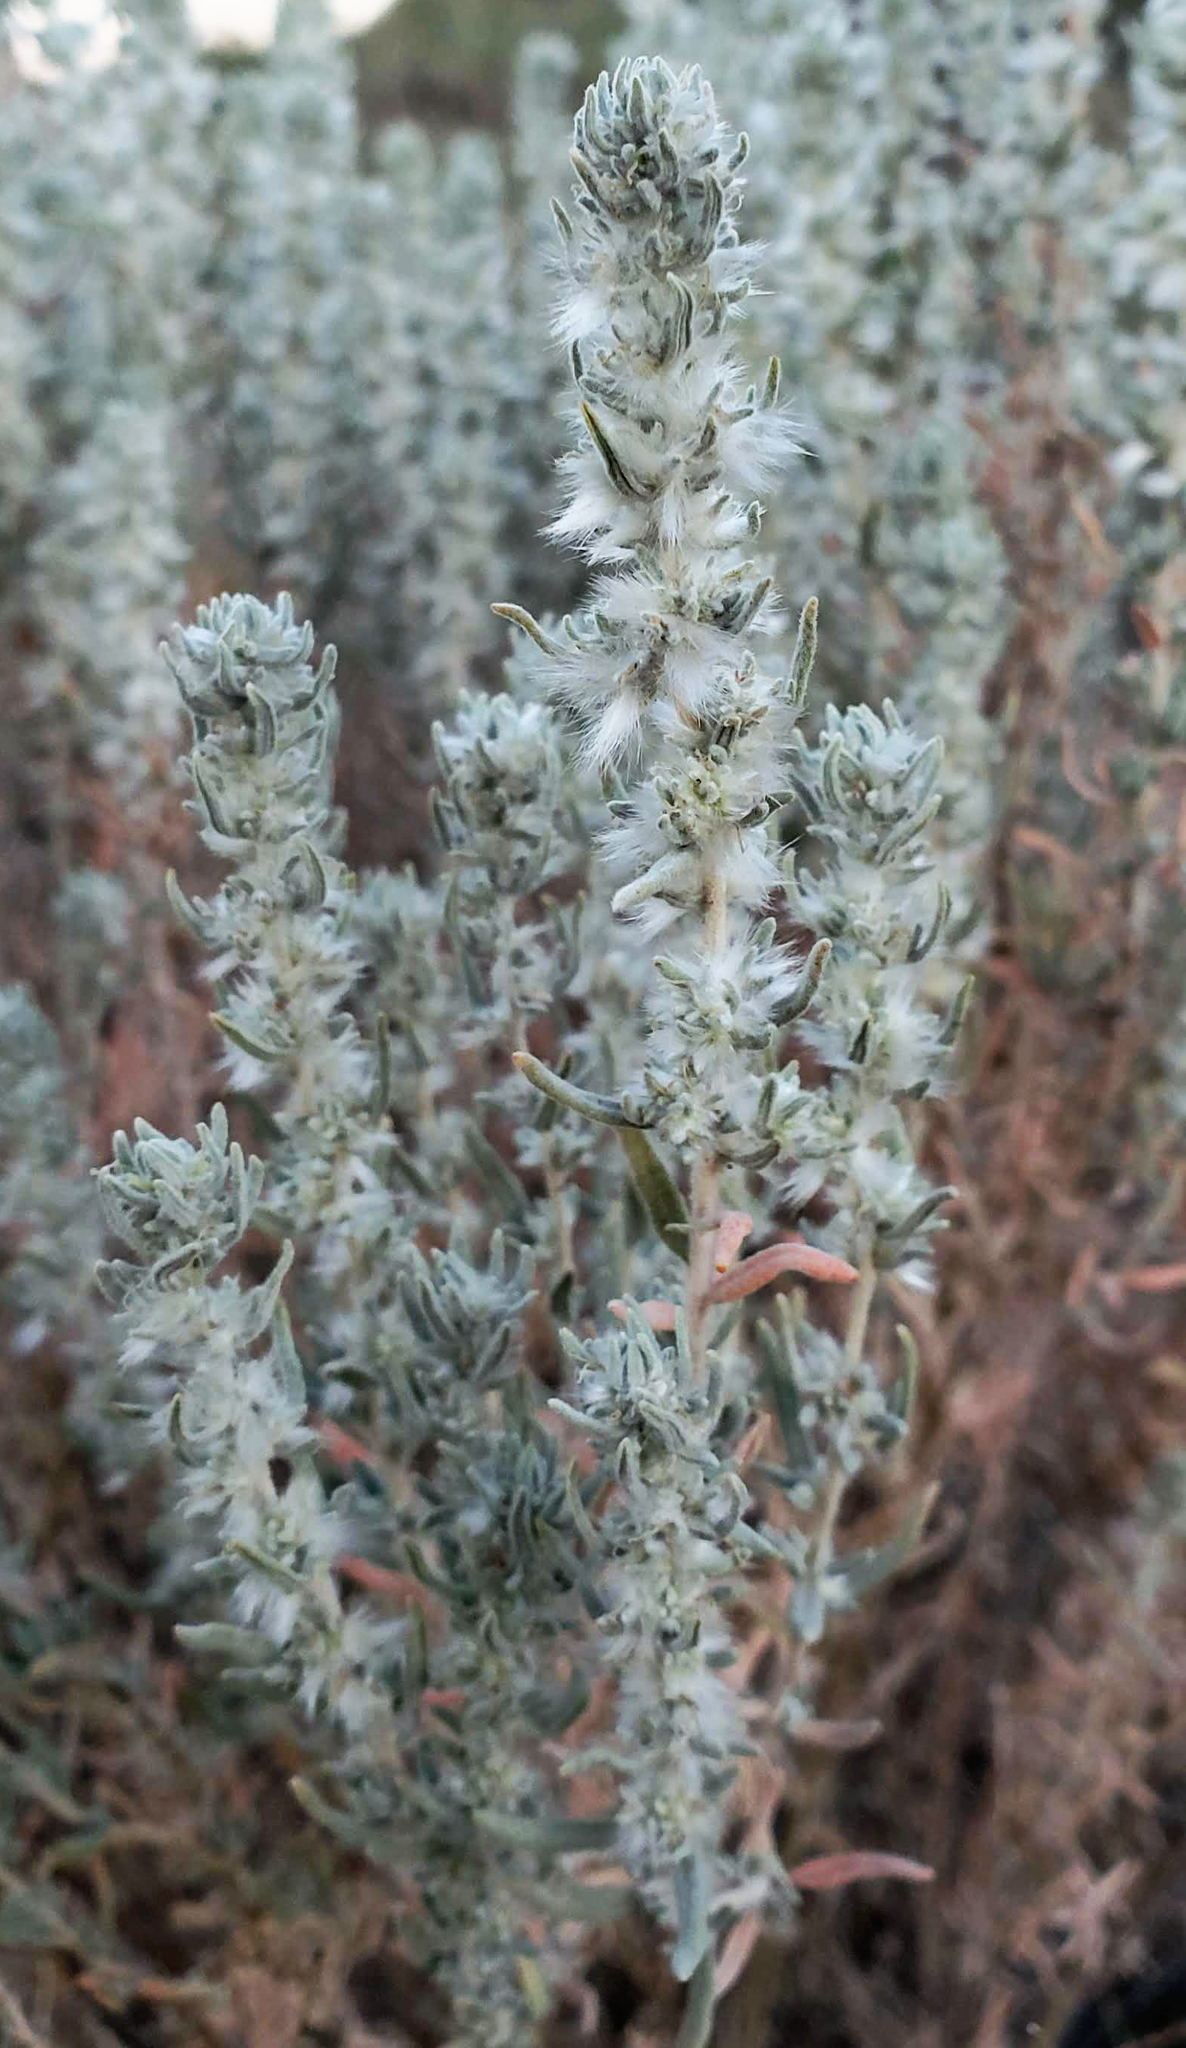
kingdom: Plantae
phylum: Tracheophyta
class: Magnoliopsida
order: Caryophyllales
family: Amaranthaceae
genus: Krascheninnikovia
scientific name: Krascheninnikovia lanata
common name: Winterfat
